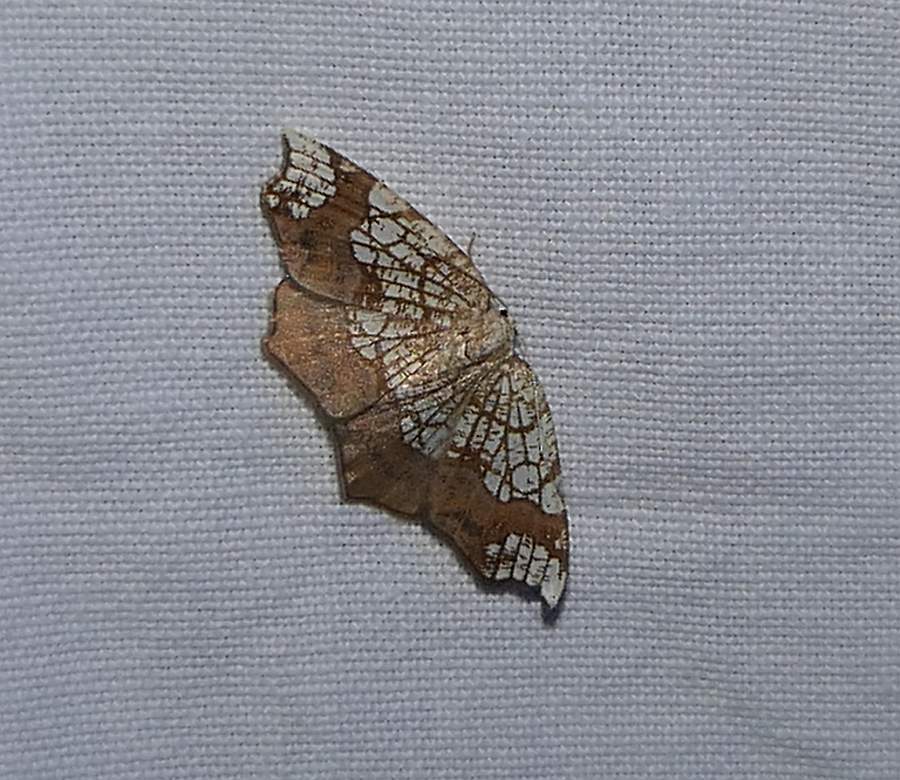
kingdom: Animalia
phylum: Arthropoda
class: Insecta
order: Lepidoptera
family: Geometridae
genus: Nematocampa
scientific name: Nematocampa resistaria
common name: Horned spanworm moth
